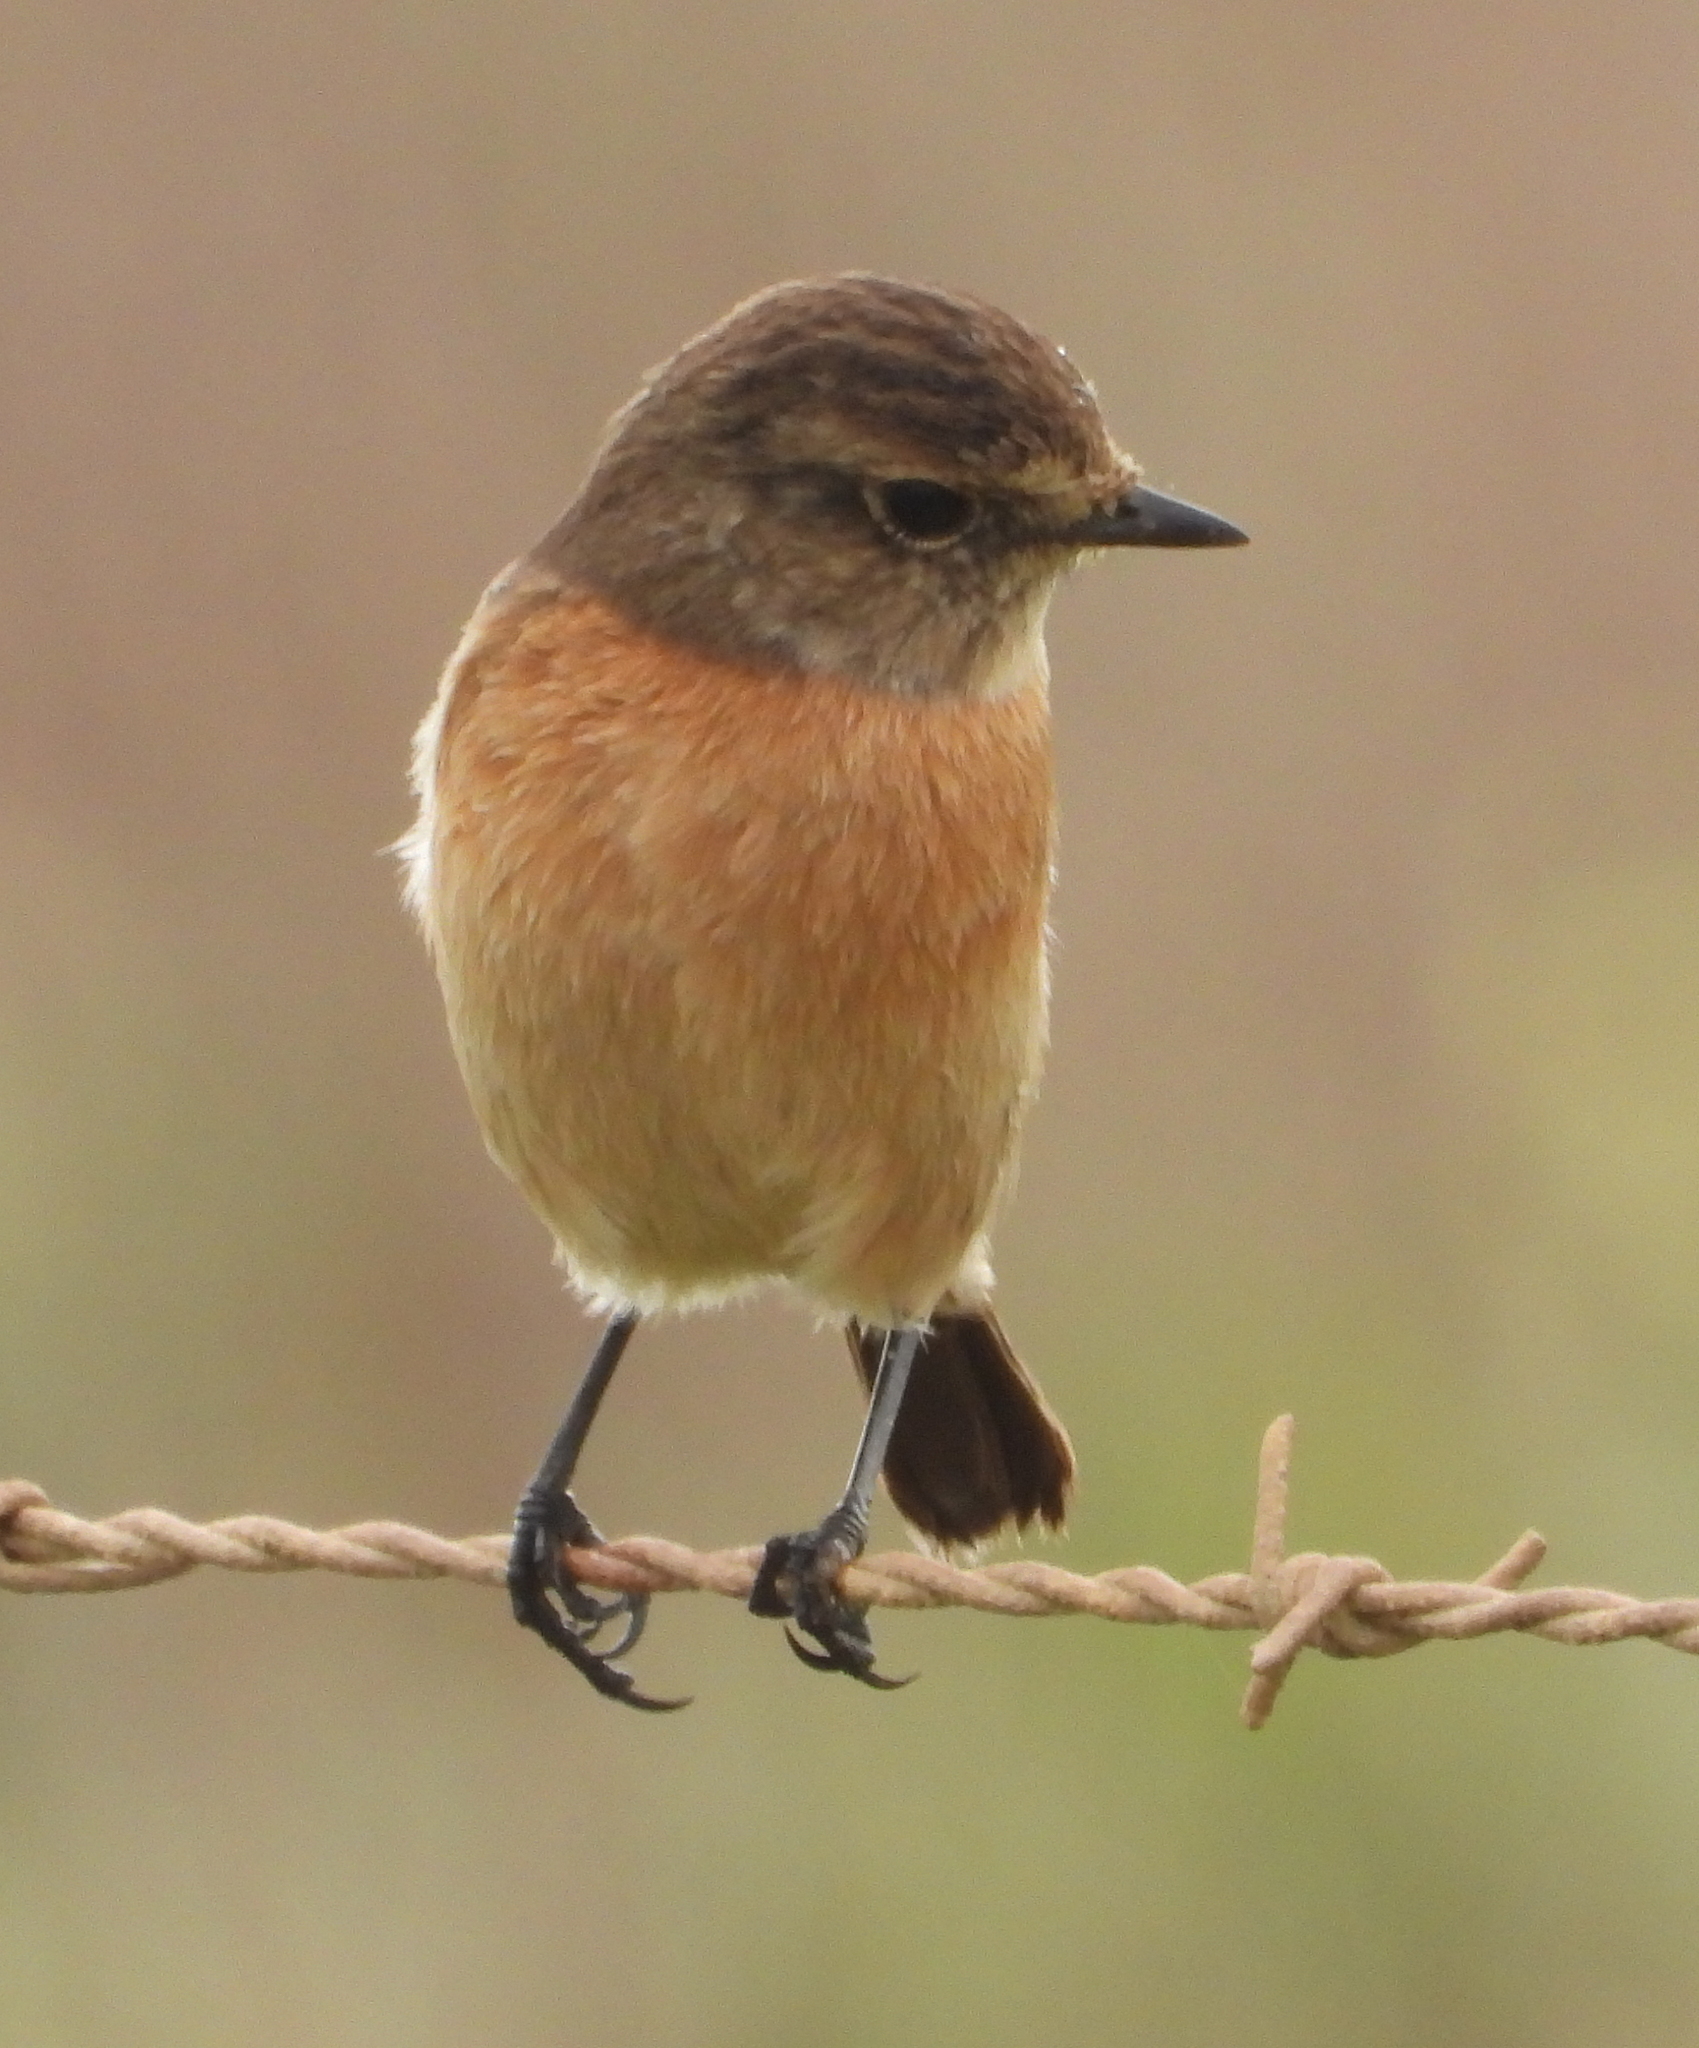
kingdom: Animalia
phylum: Chordata
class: Aves
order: Passeriformes
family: Muscicapidae
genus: Saxicola
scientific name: Saxicola torquatus
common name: African stonechat
